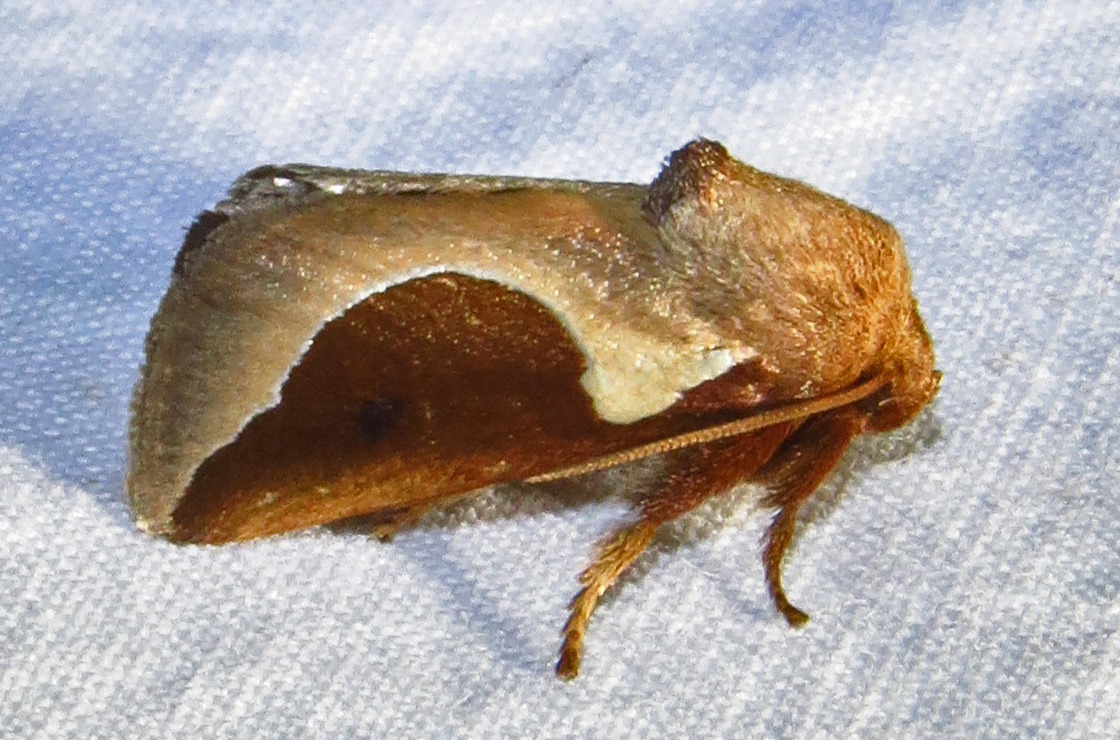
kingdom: Animalia
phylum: Arthropoda
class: Insecta
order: Lepidoptera
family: Limacodidae
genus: Prolimacodes
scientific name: Prolimacodes badia
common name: Skiff moth
